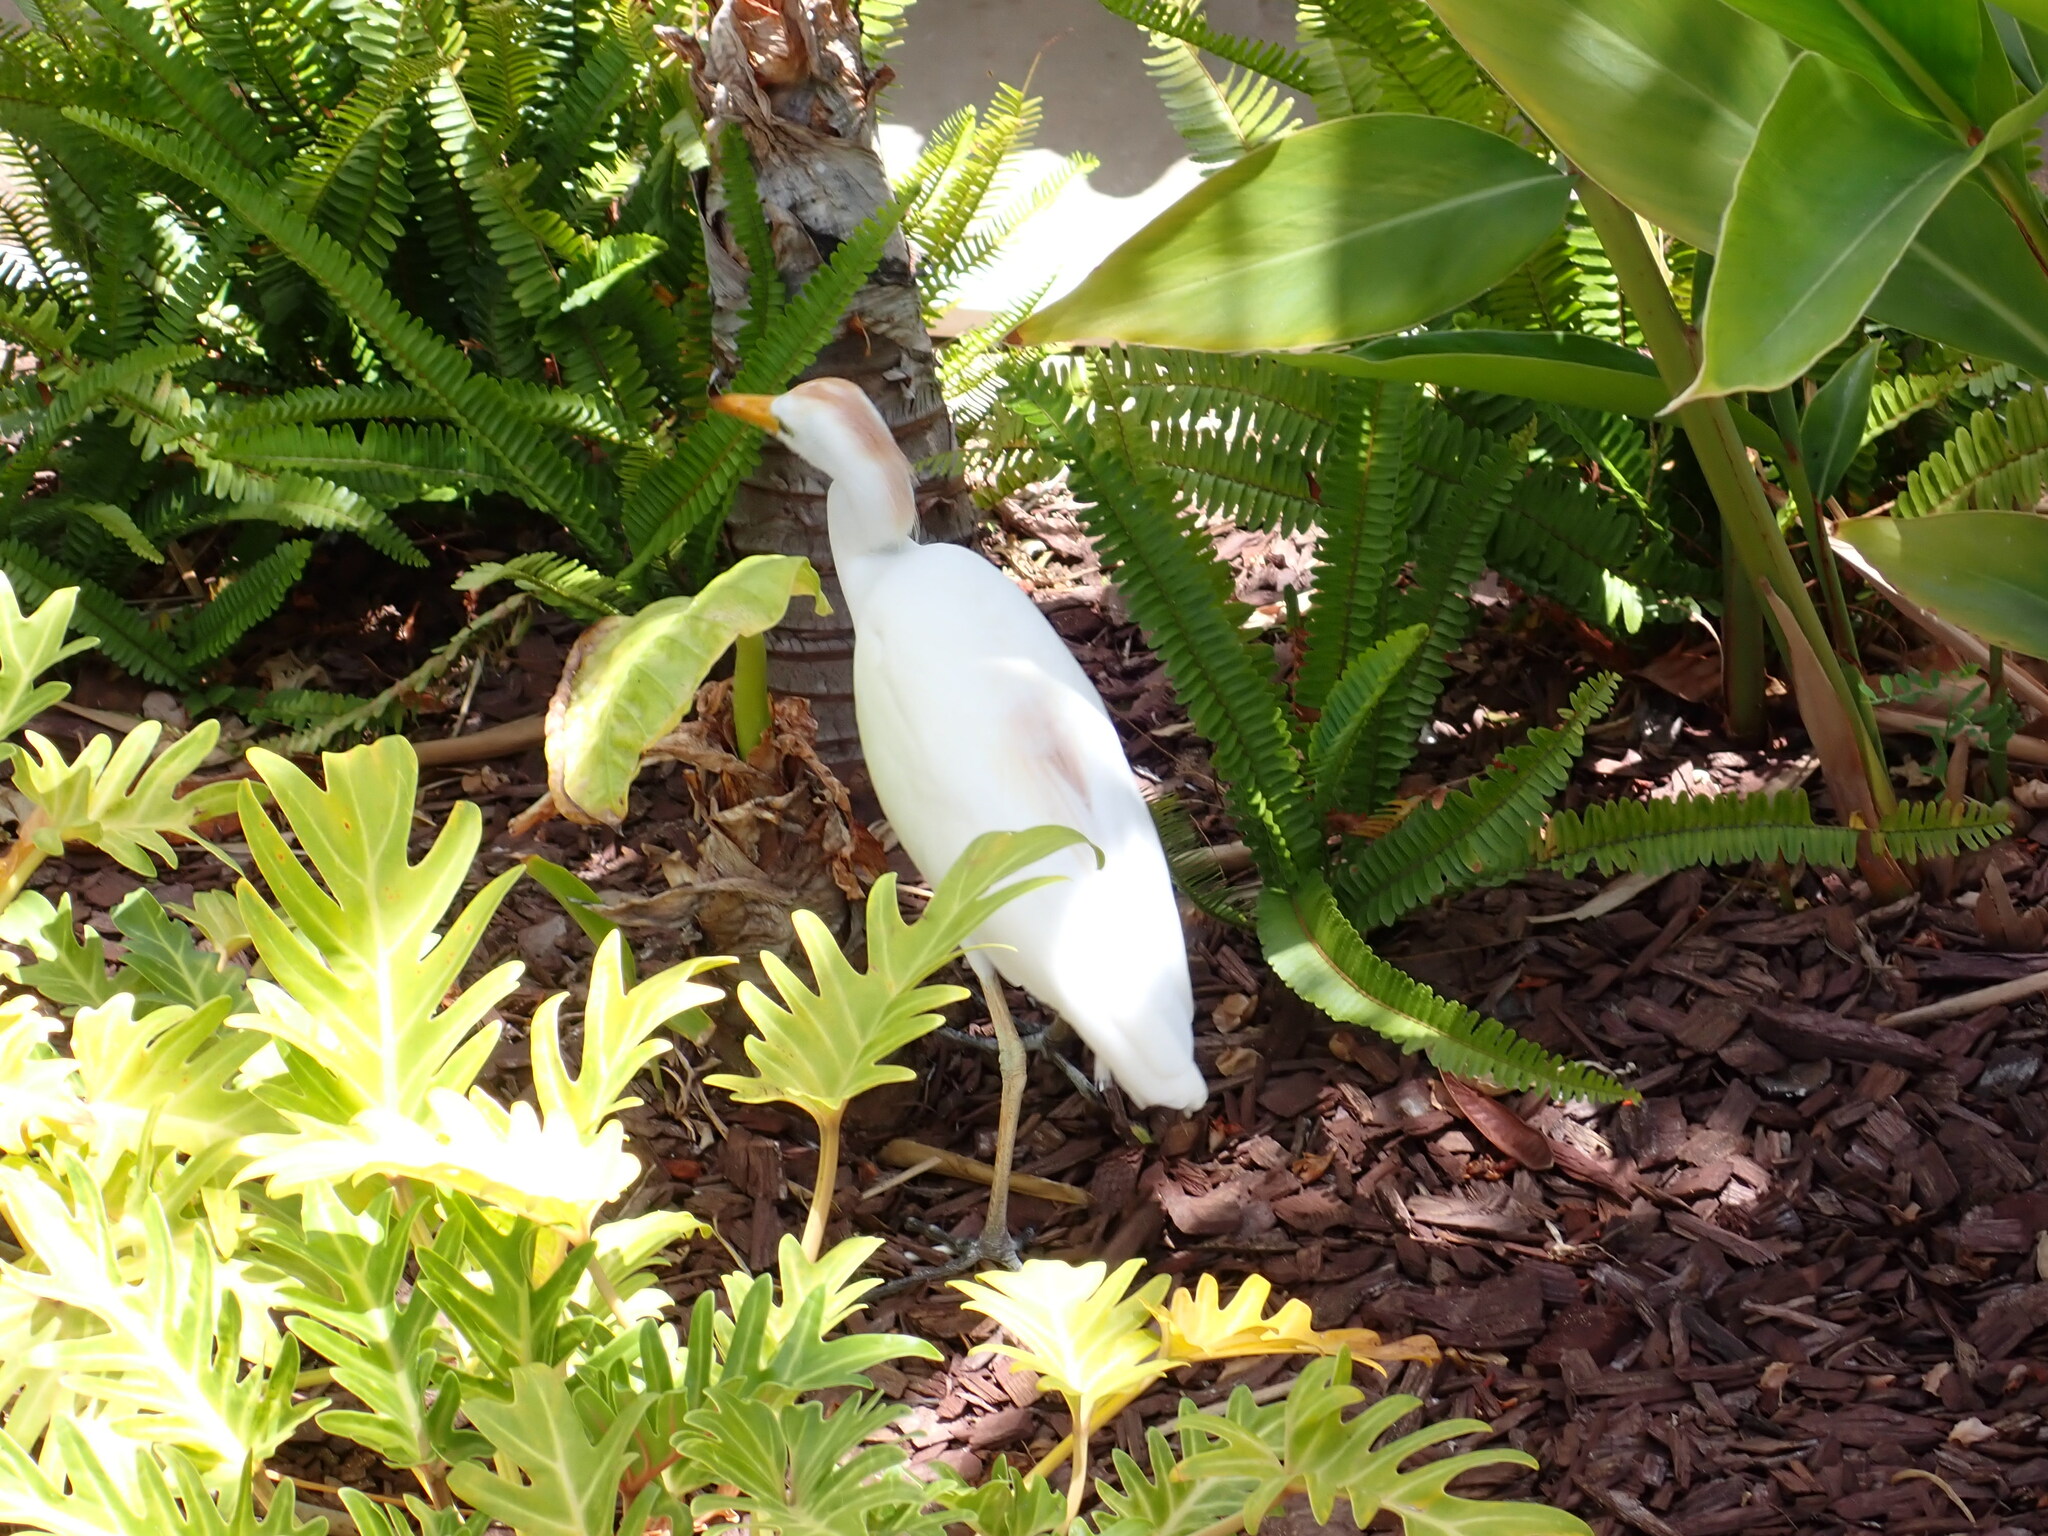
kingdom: Animalia
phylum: Chordata
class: Aves
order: Pelecaniformes
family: Ardeidae
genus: Bubulcus
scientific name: Bubulcus ibis
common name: Cattle egret
